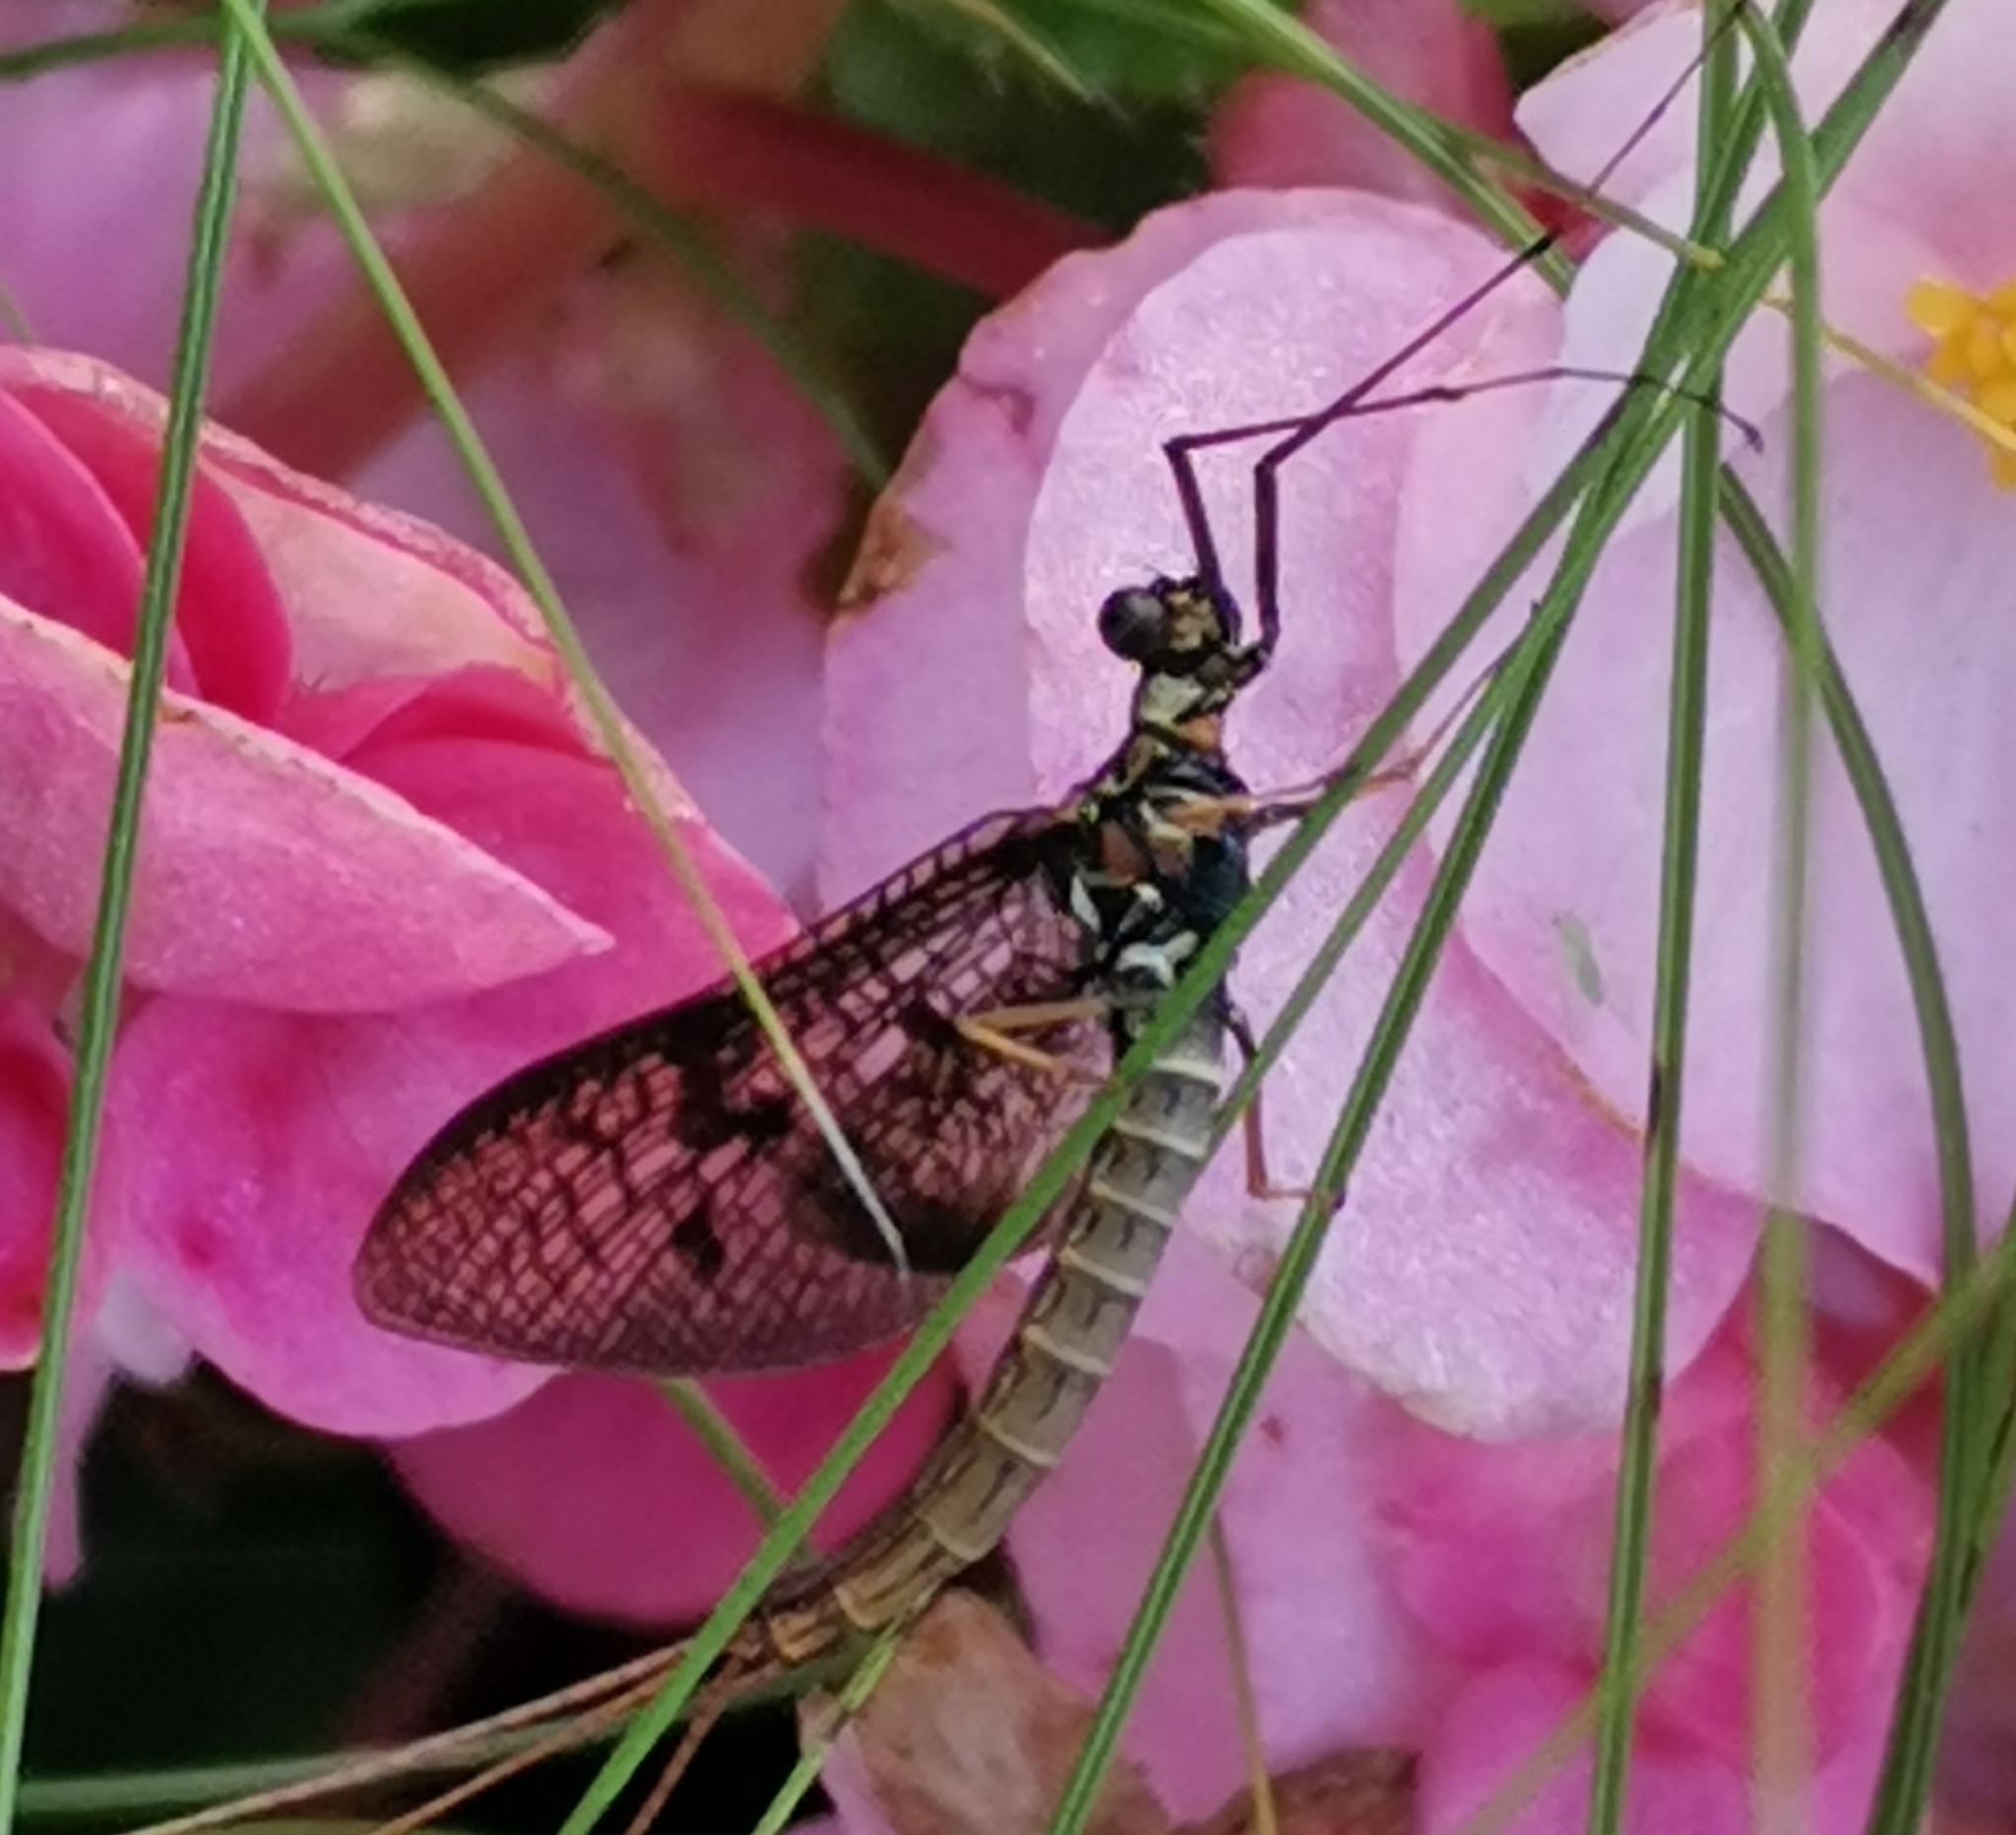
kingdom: Animalia
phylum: Arthropoda
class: Insecta
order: Ephemeroptera
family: Ephemeridae
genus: Ephemera
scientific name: Ephemera vulgata
